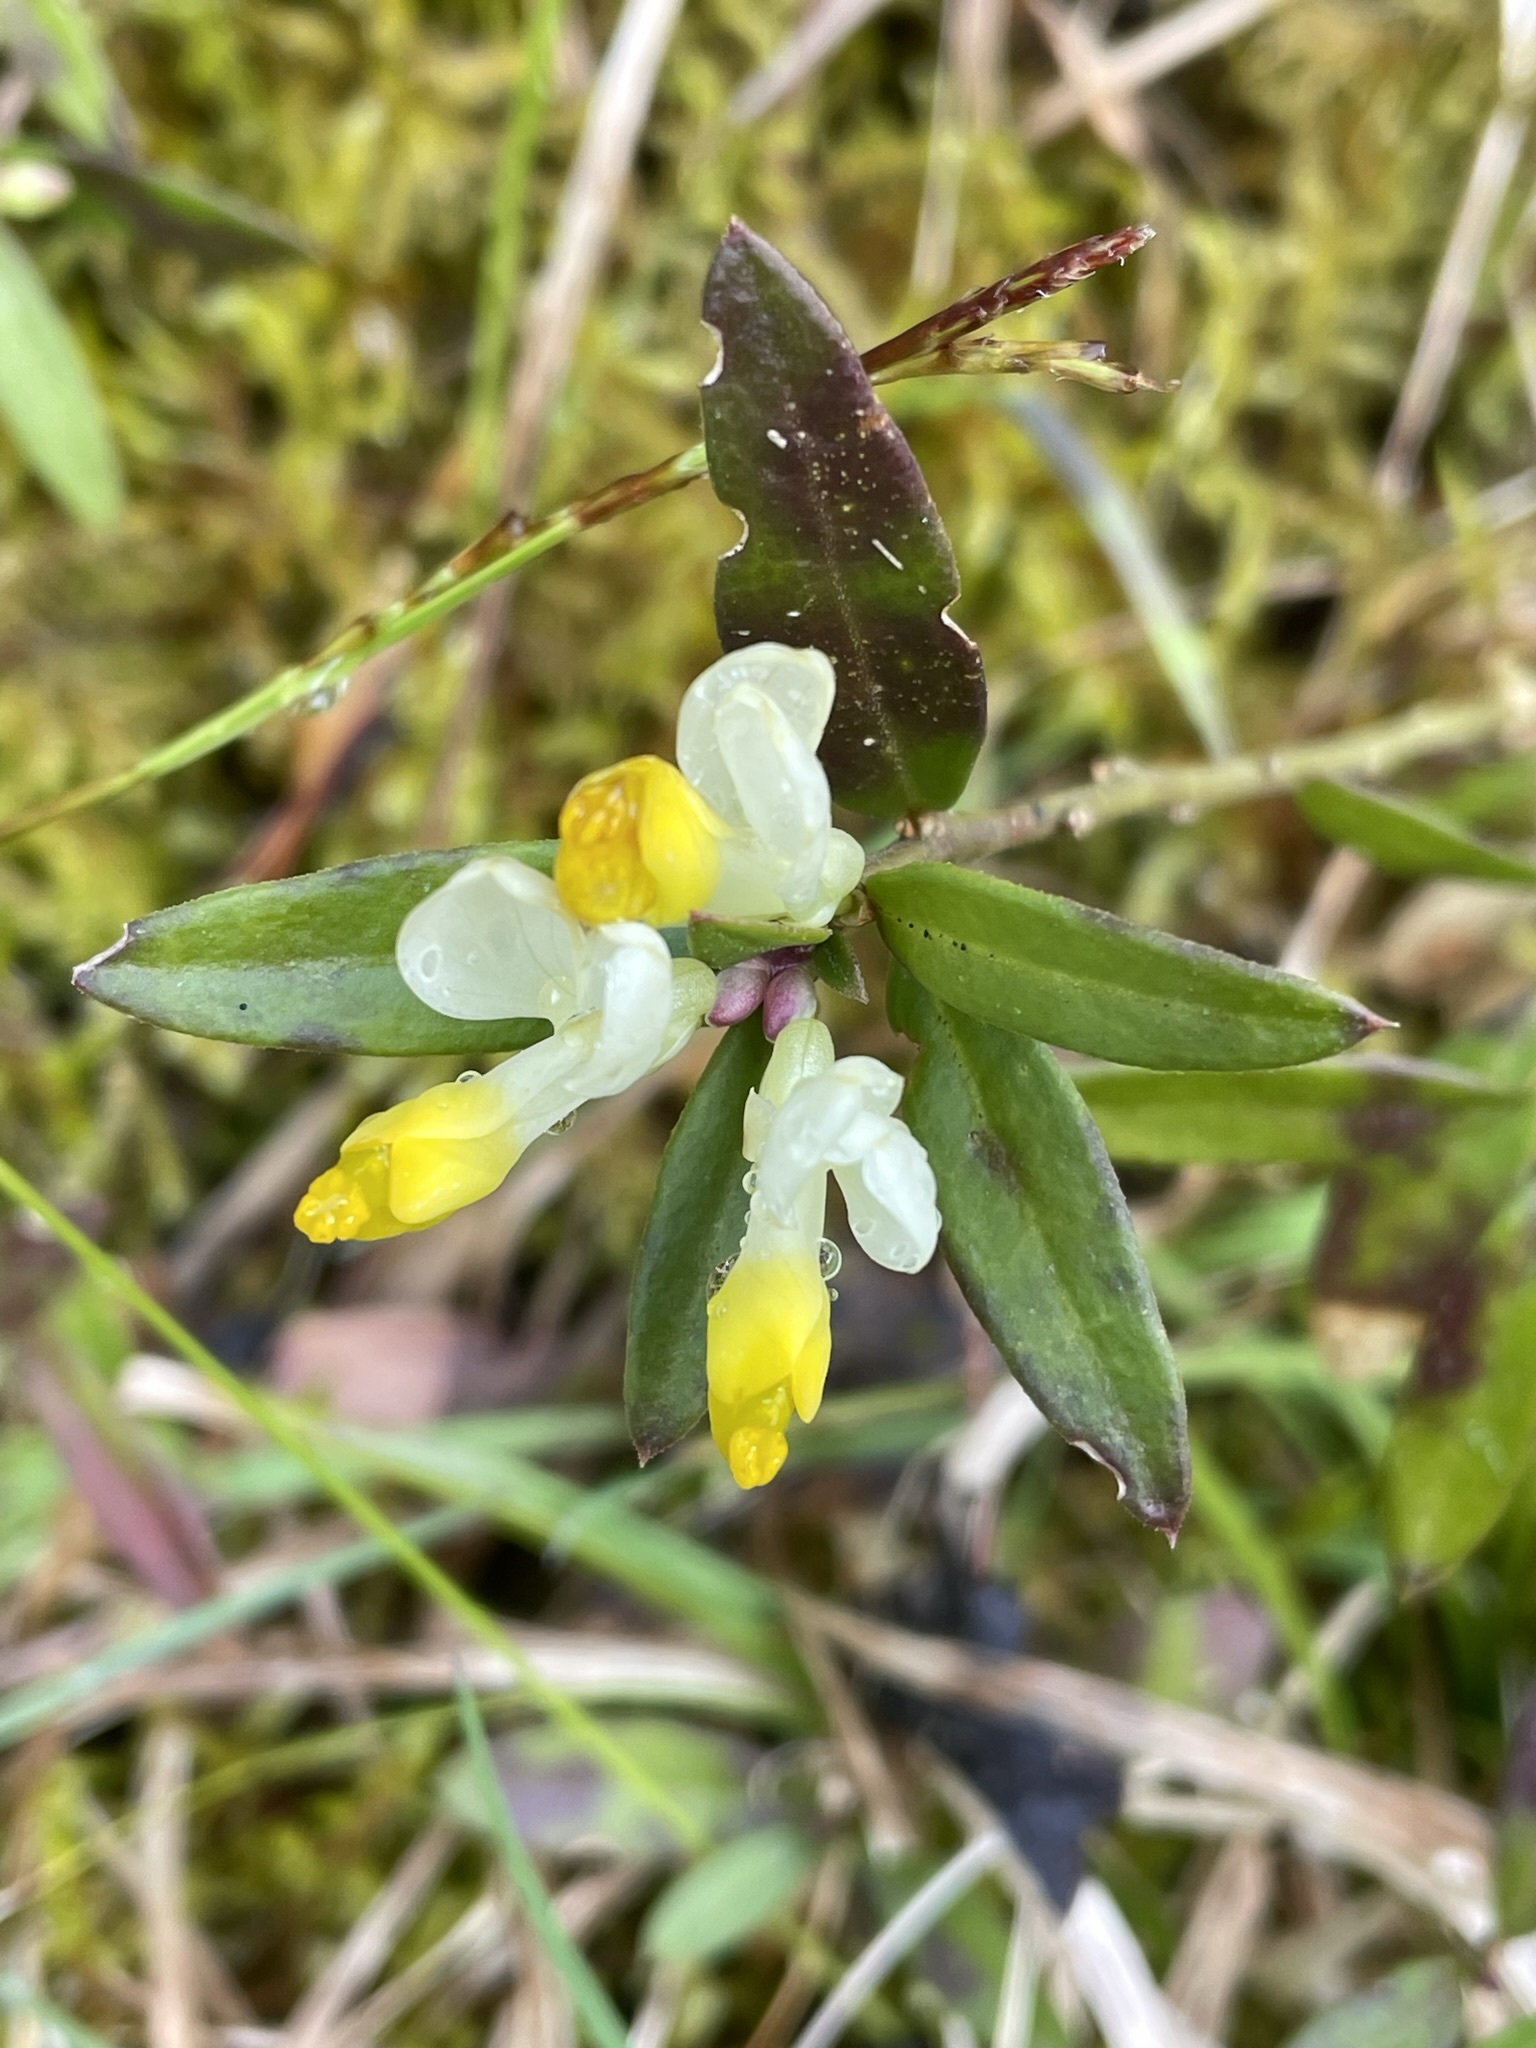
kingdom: Plantae
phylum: Tracheophyta
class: Magnoliopsida
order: Fabales
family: Polygalaceae
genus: Polygaloides
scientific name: Polygaloides chamaebuxus
